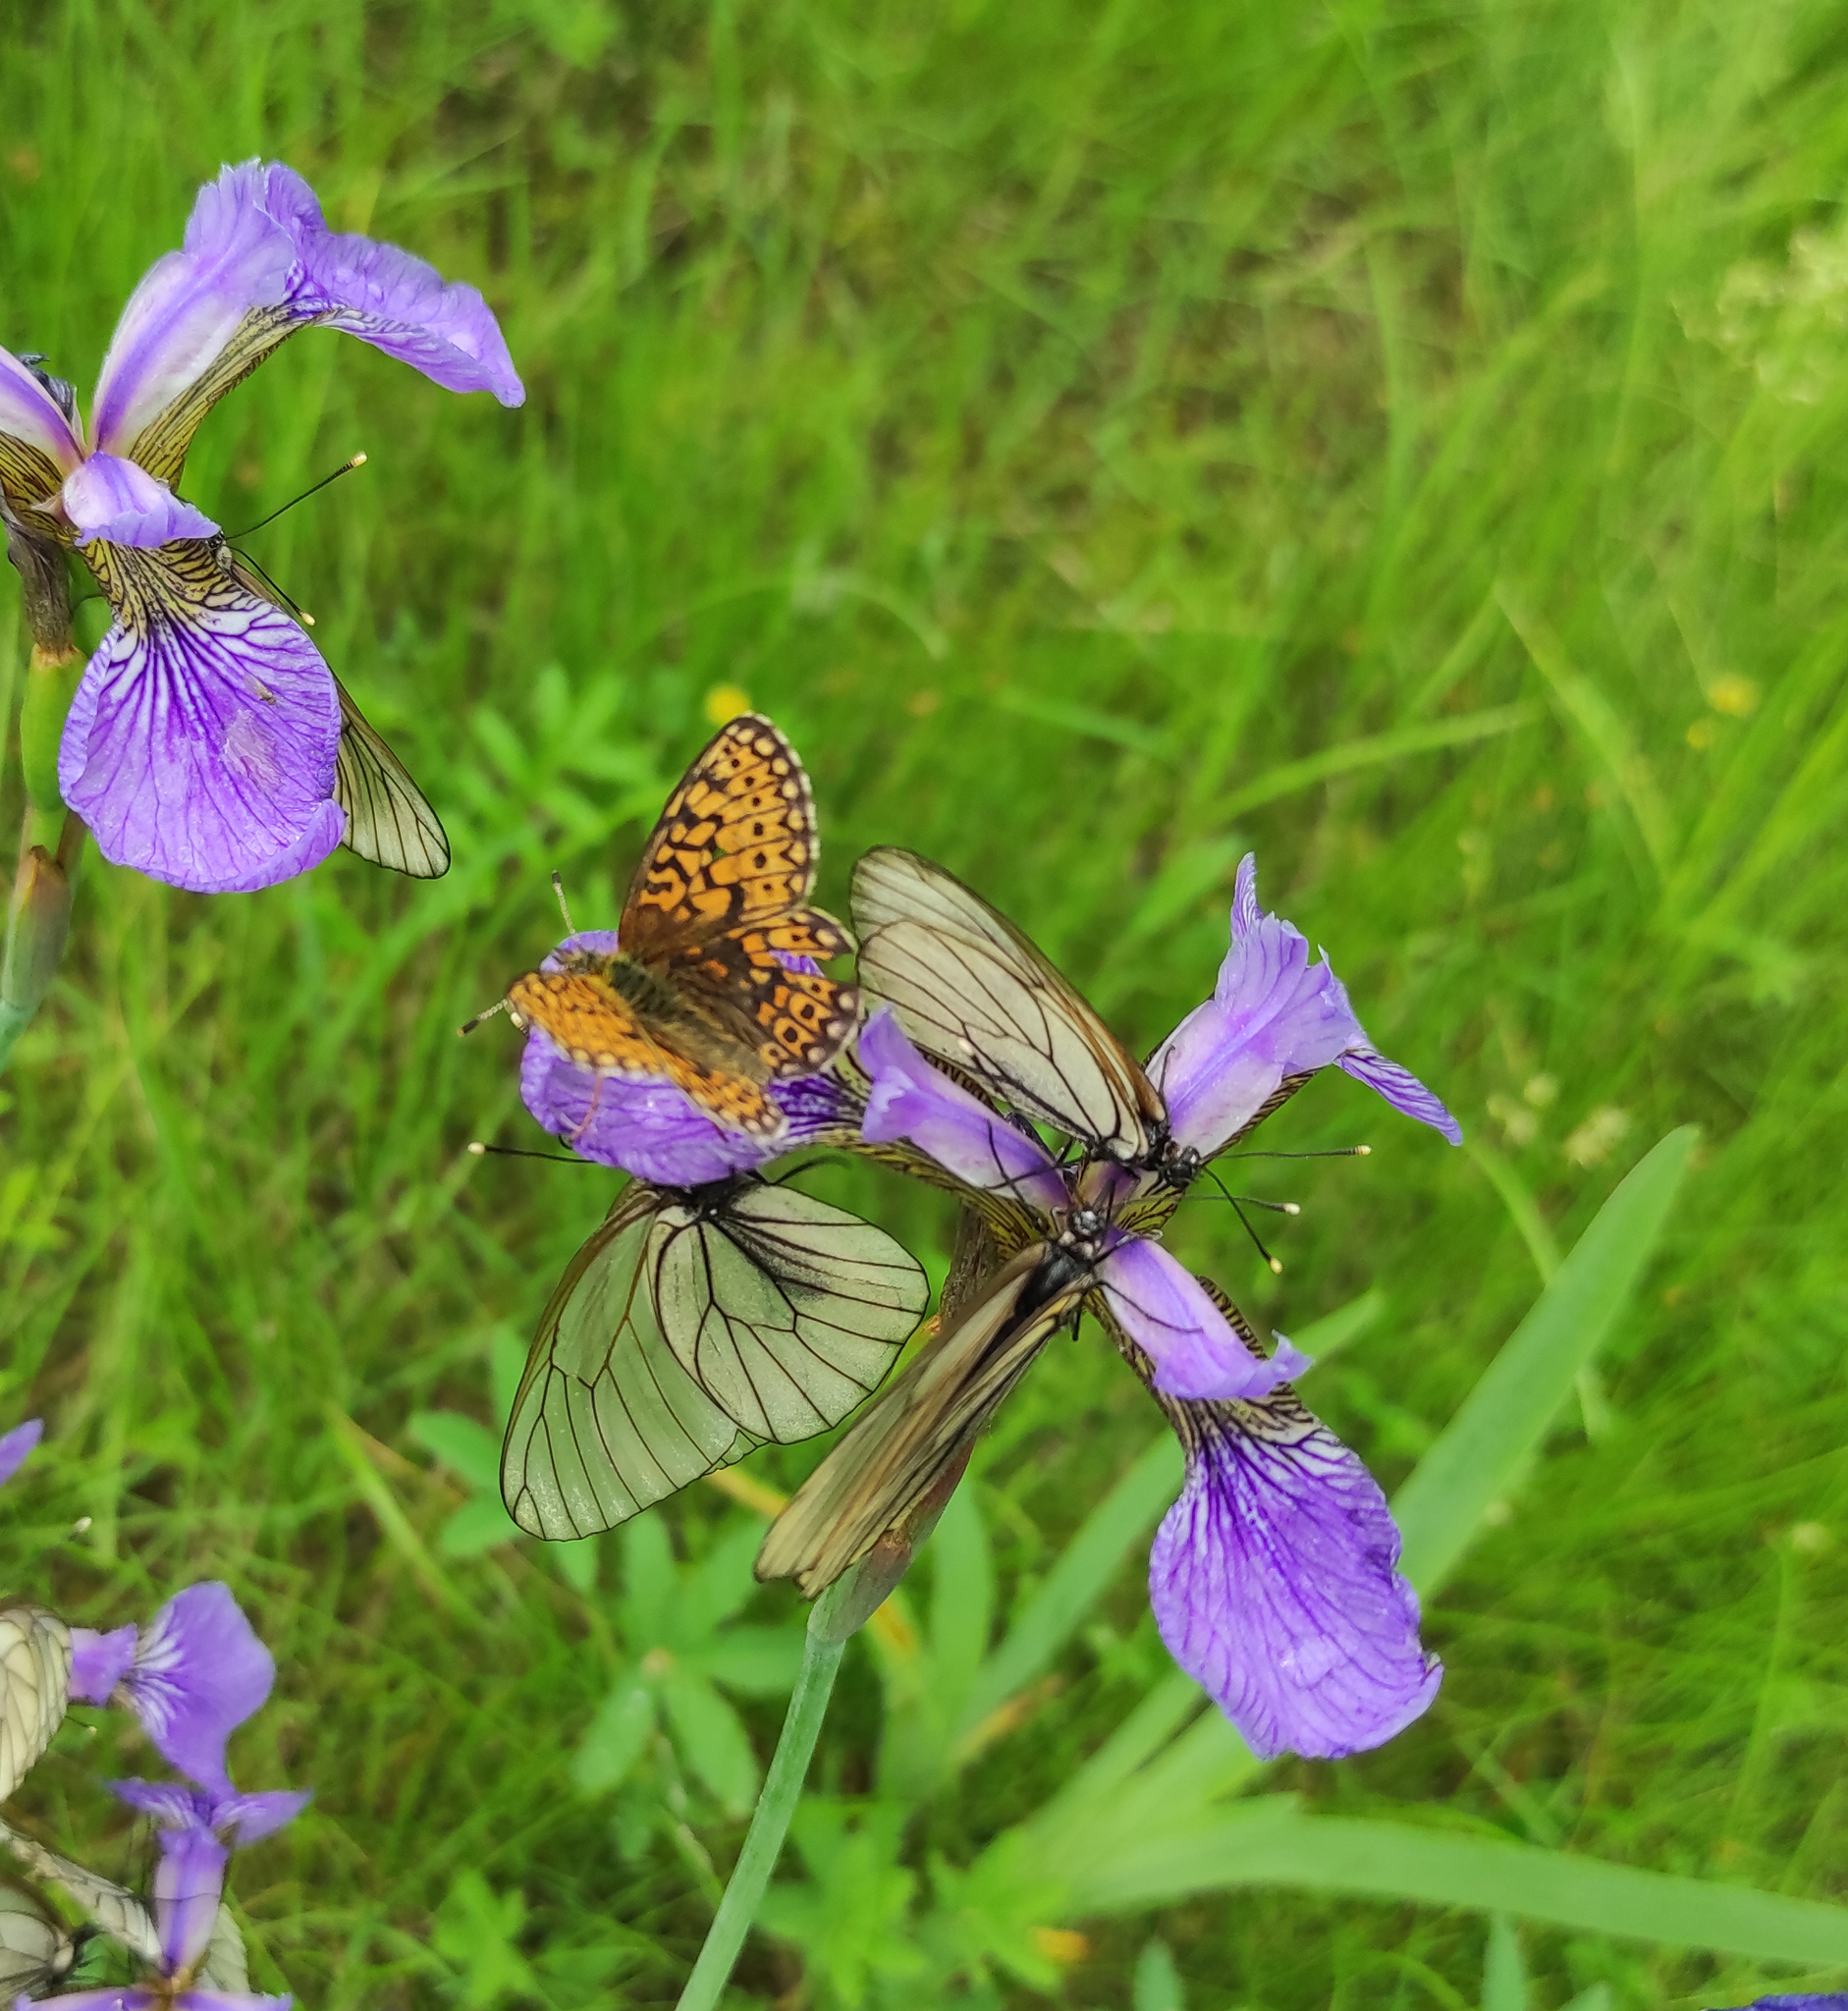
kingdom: Animalia
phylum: Arthropoda
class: Insecta
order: Lepidoptera
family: Nymphalidae
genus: Boloria
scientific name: Boloria eunomia
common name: Bog fritillary
